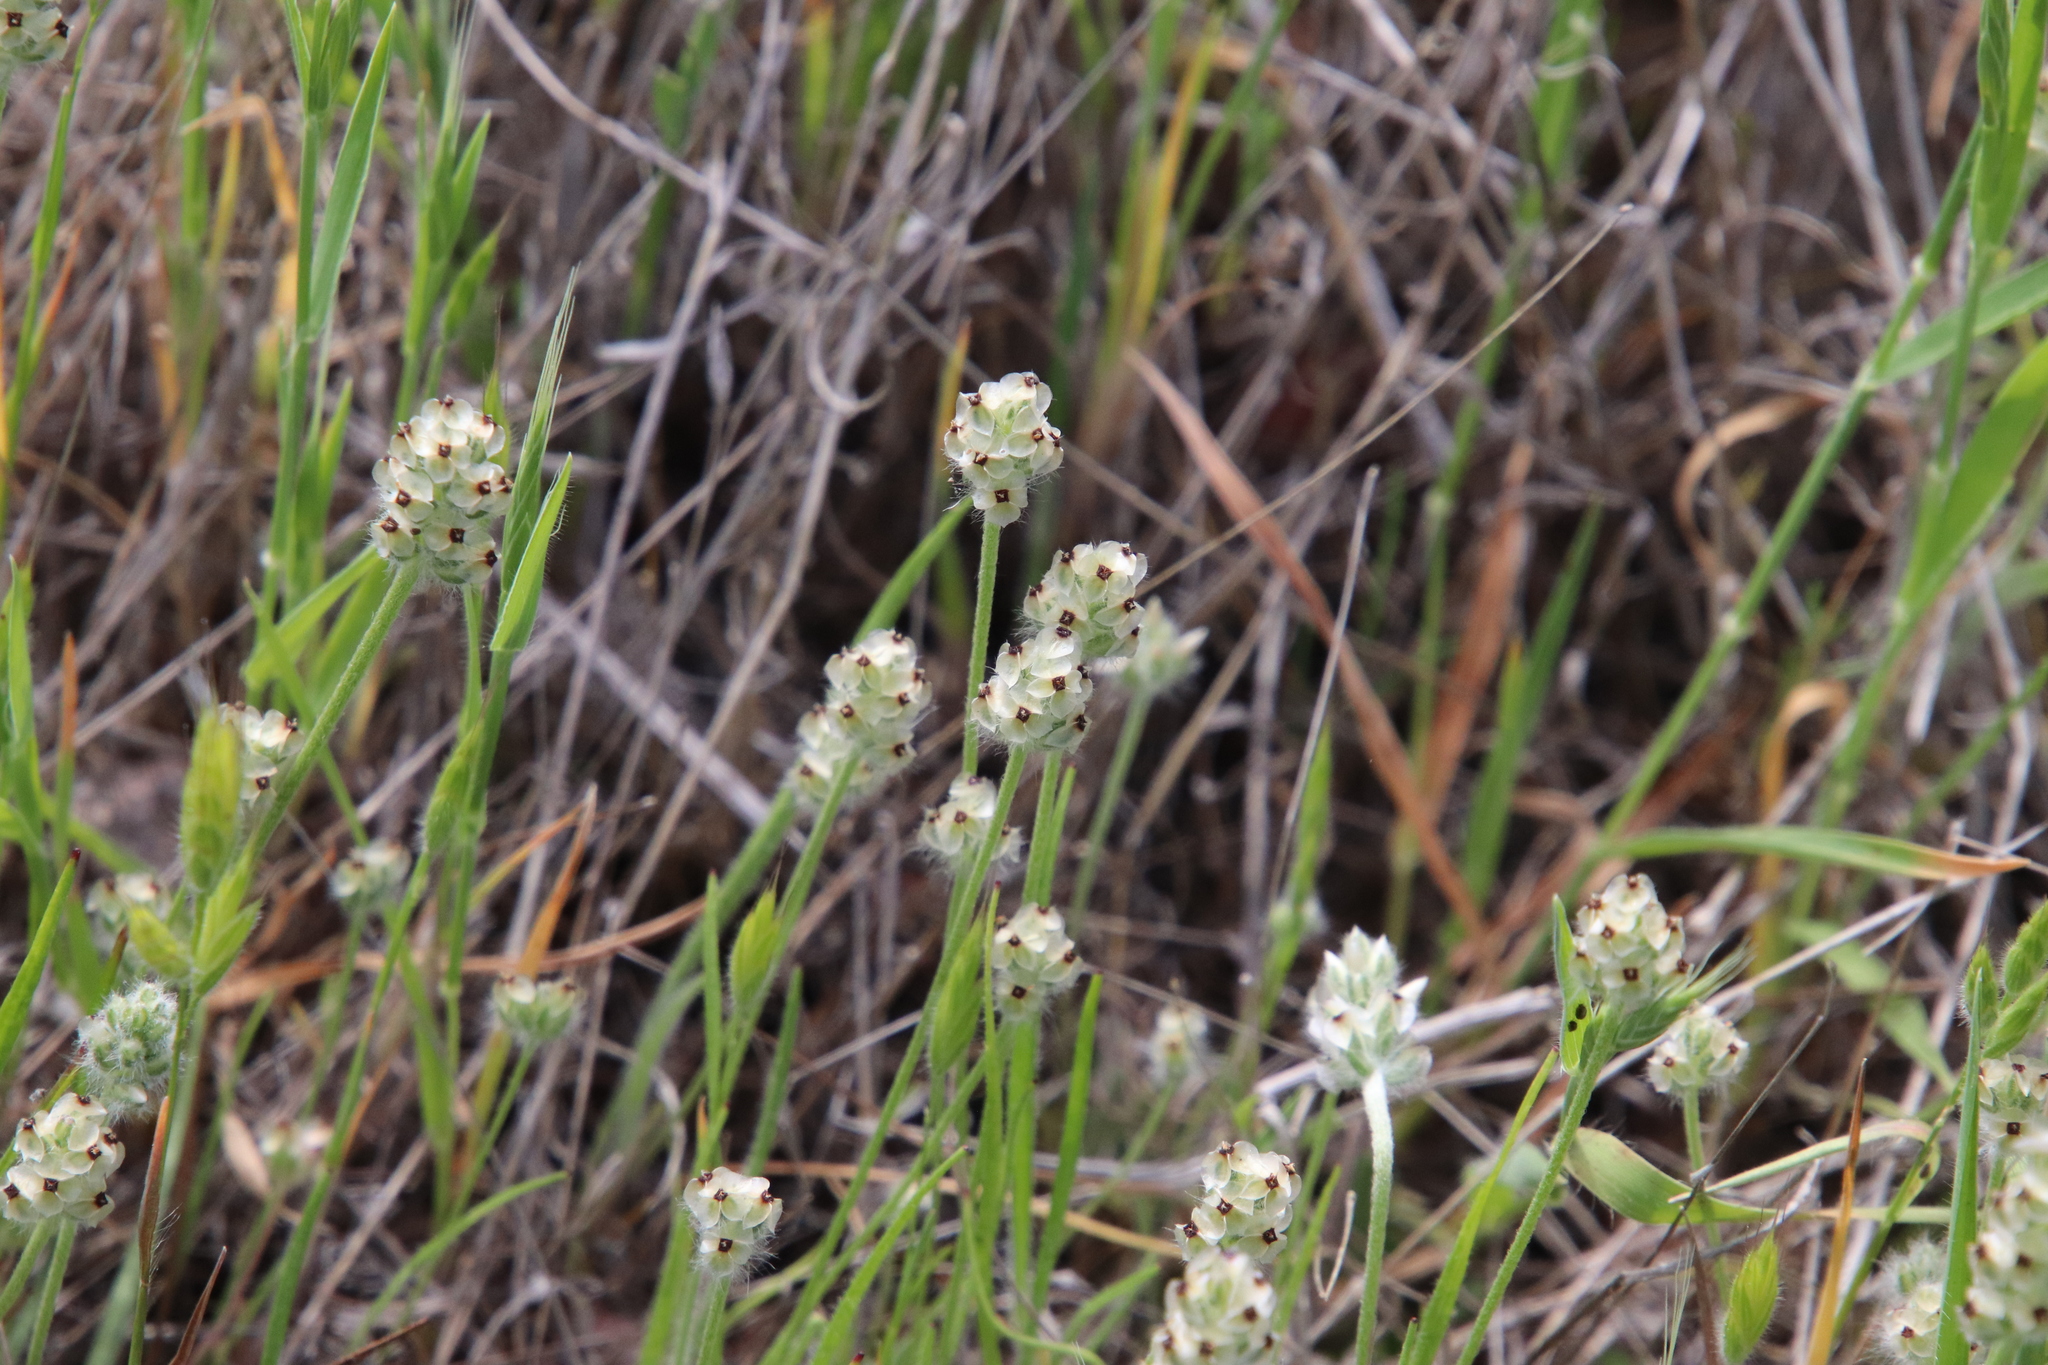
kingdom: Plantae
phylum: Tracheophyta
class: Magnoliopsida
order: Lamiales
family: Plantaginaceae
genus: Plantago
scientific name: Plantago erecta
